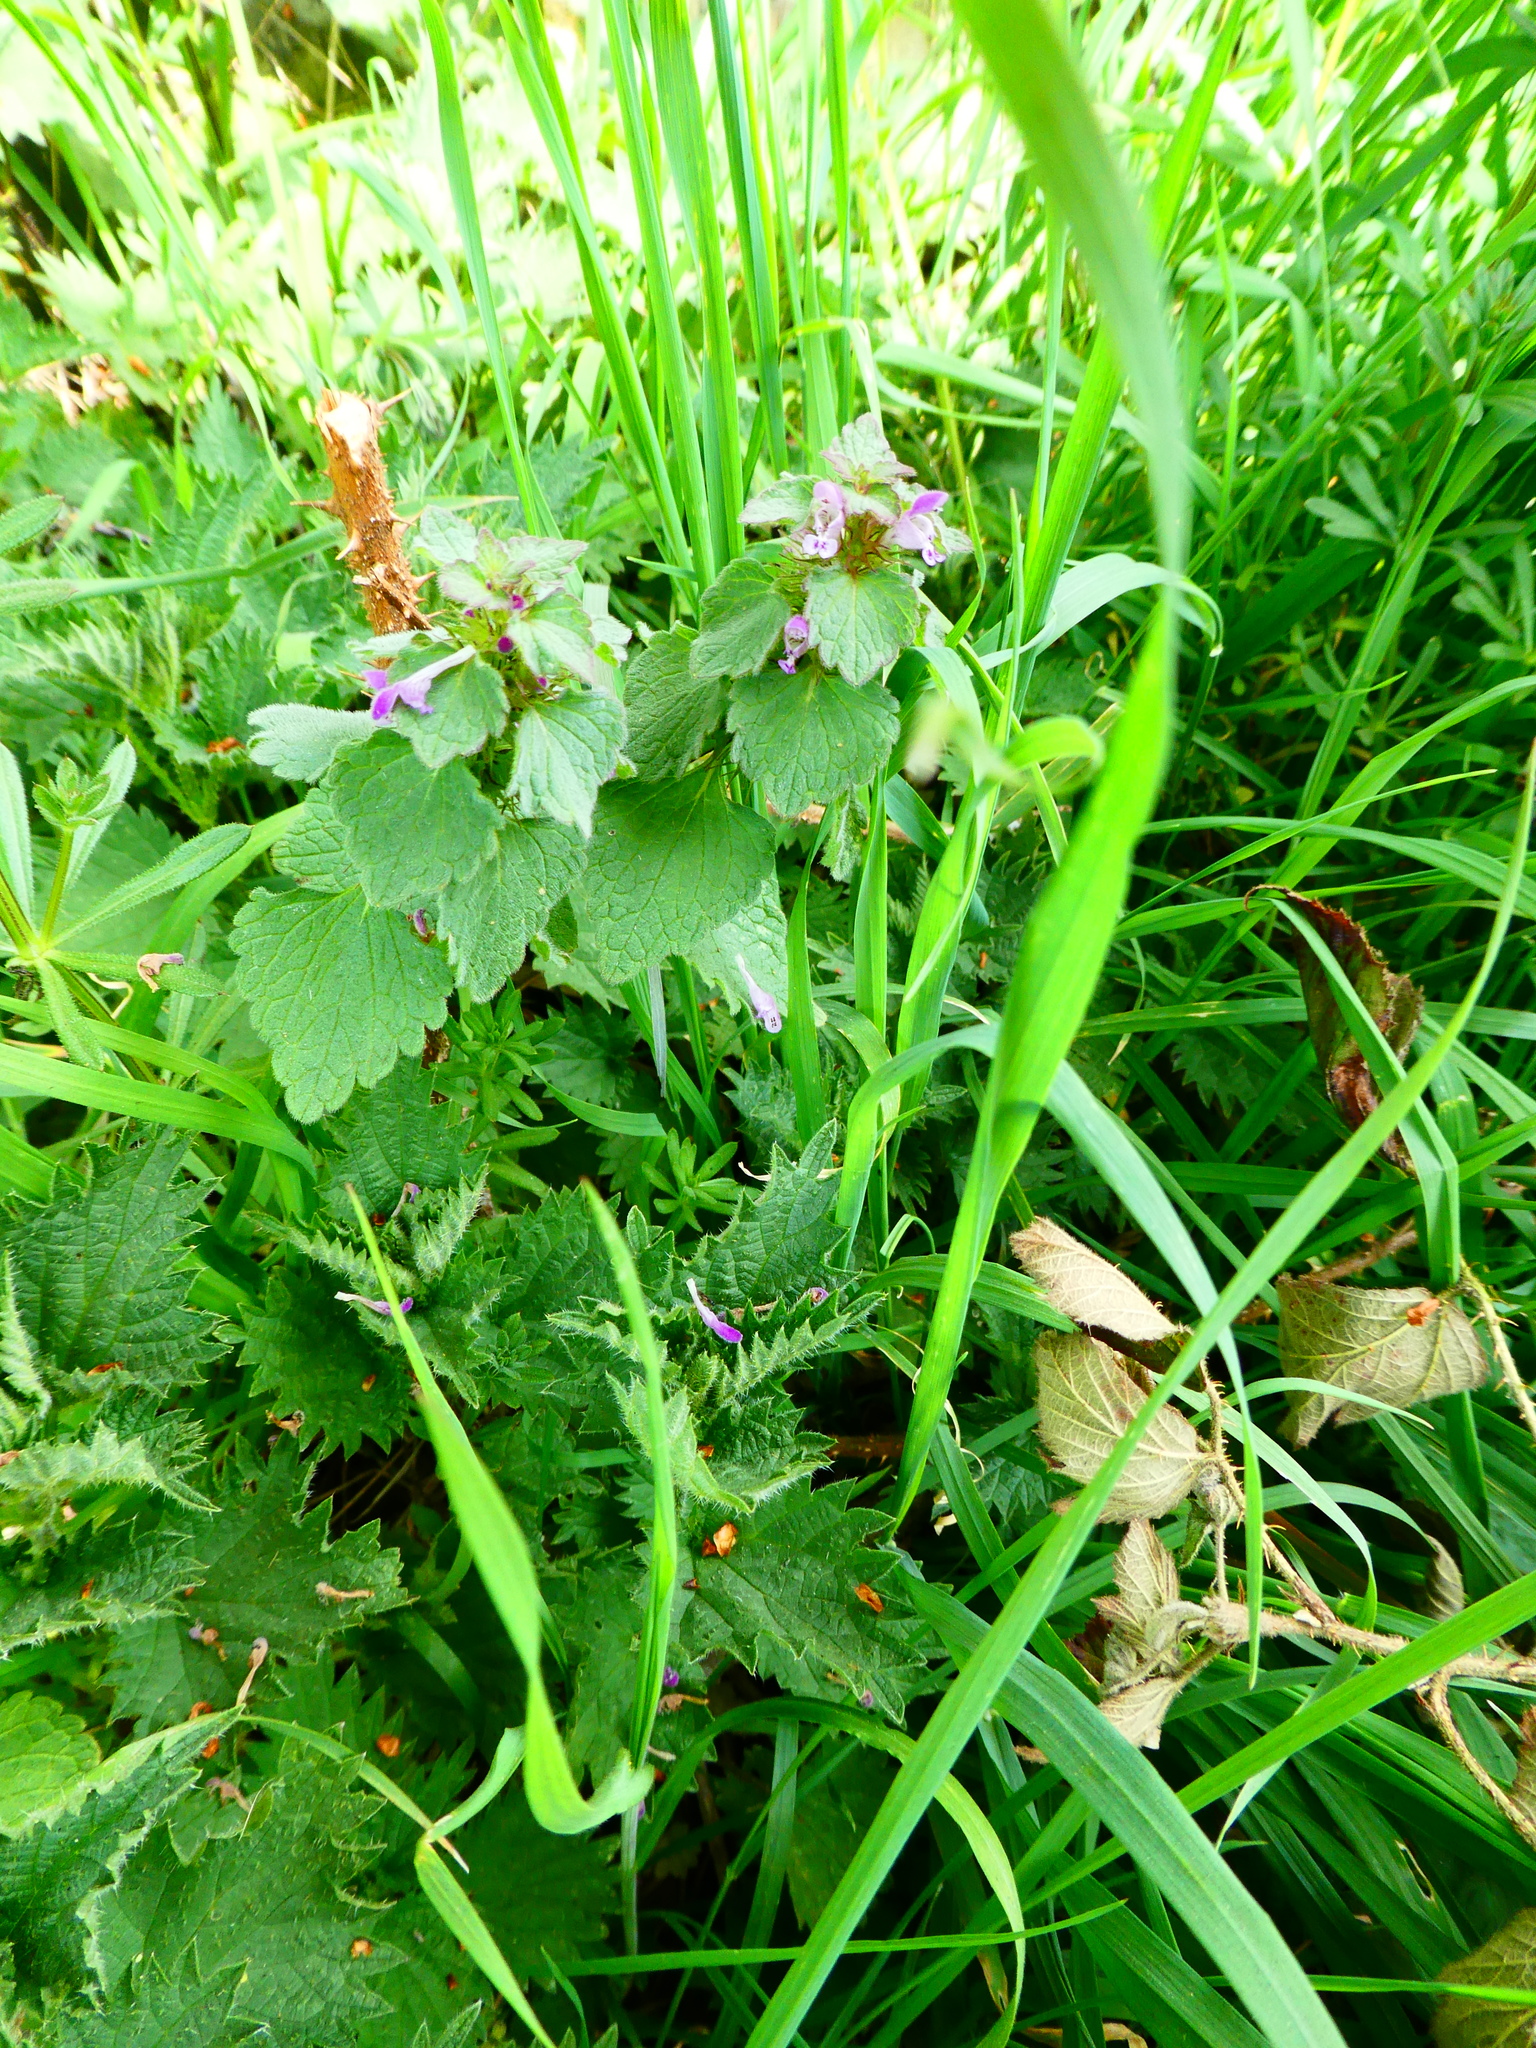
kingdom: Plantae
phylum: Tracheophyta
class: Magnoliopsida
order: Lamiales
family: Lamiaceae
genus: Lamium
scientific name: Lamium purpureum
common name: Red dead-nettle
